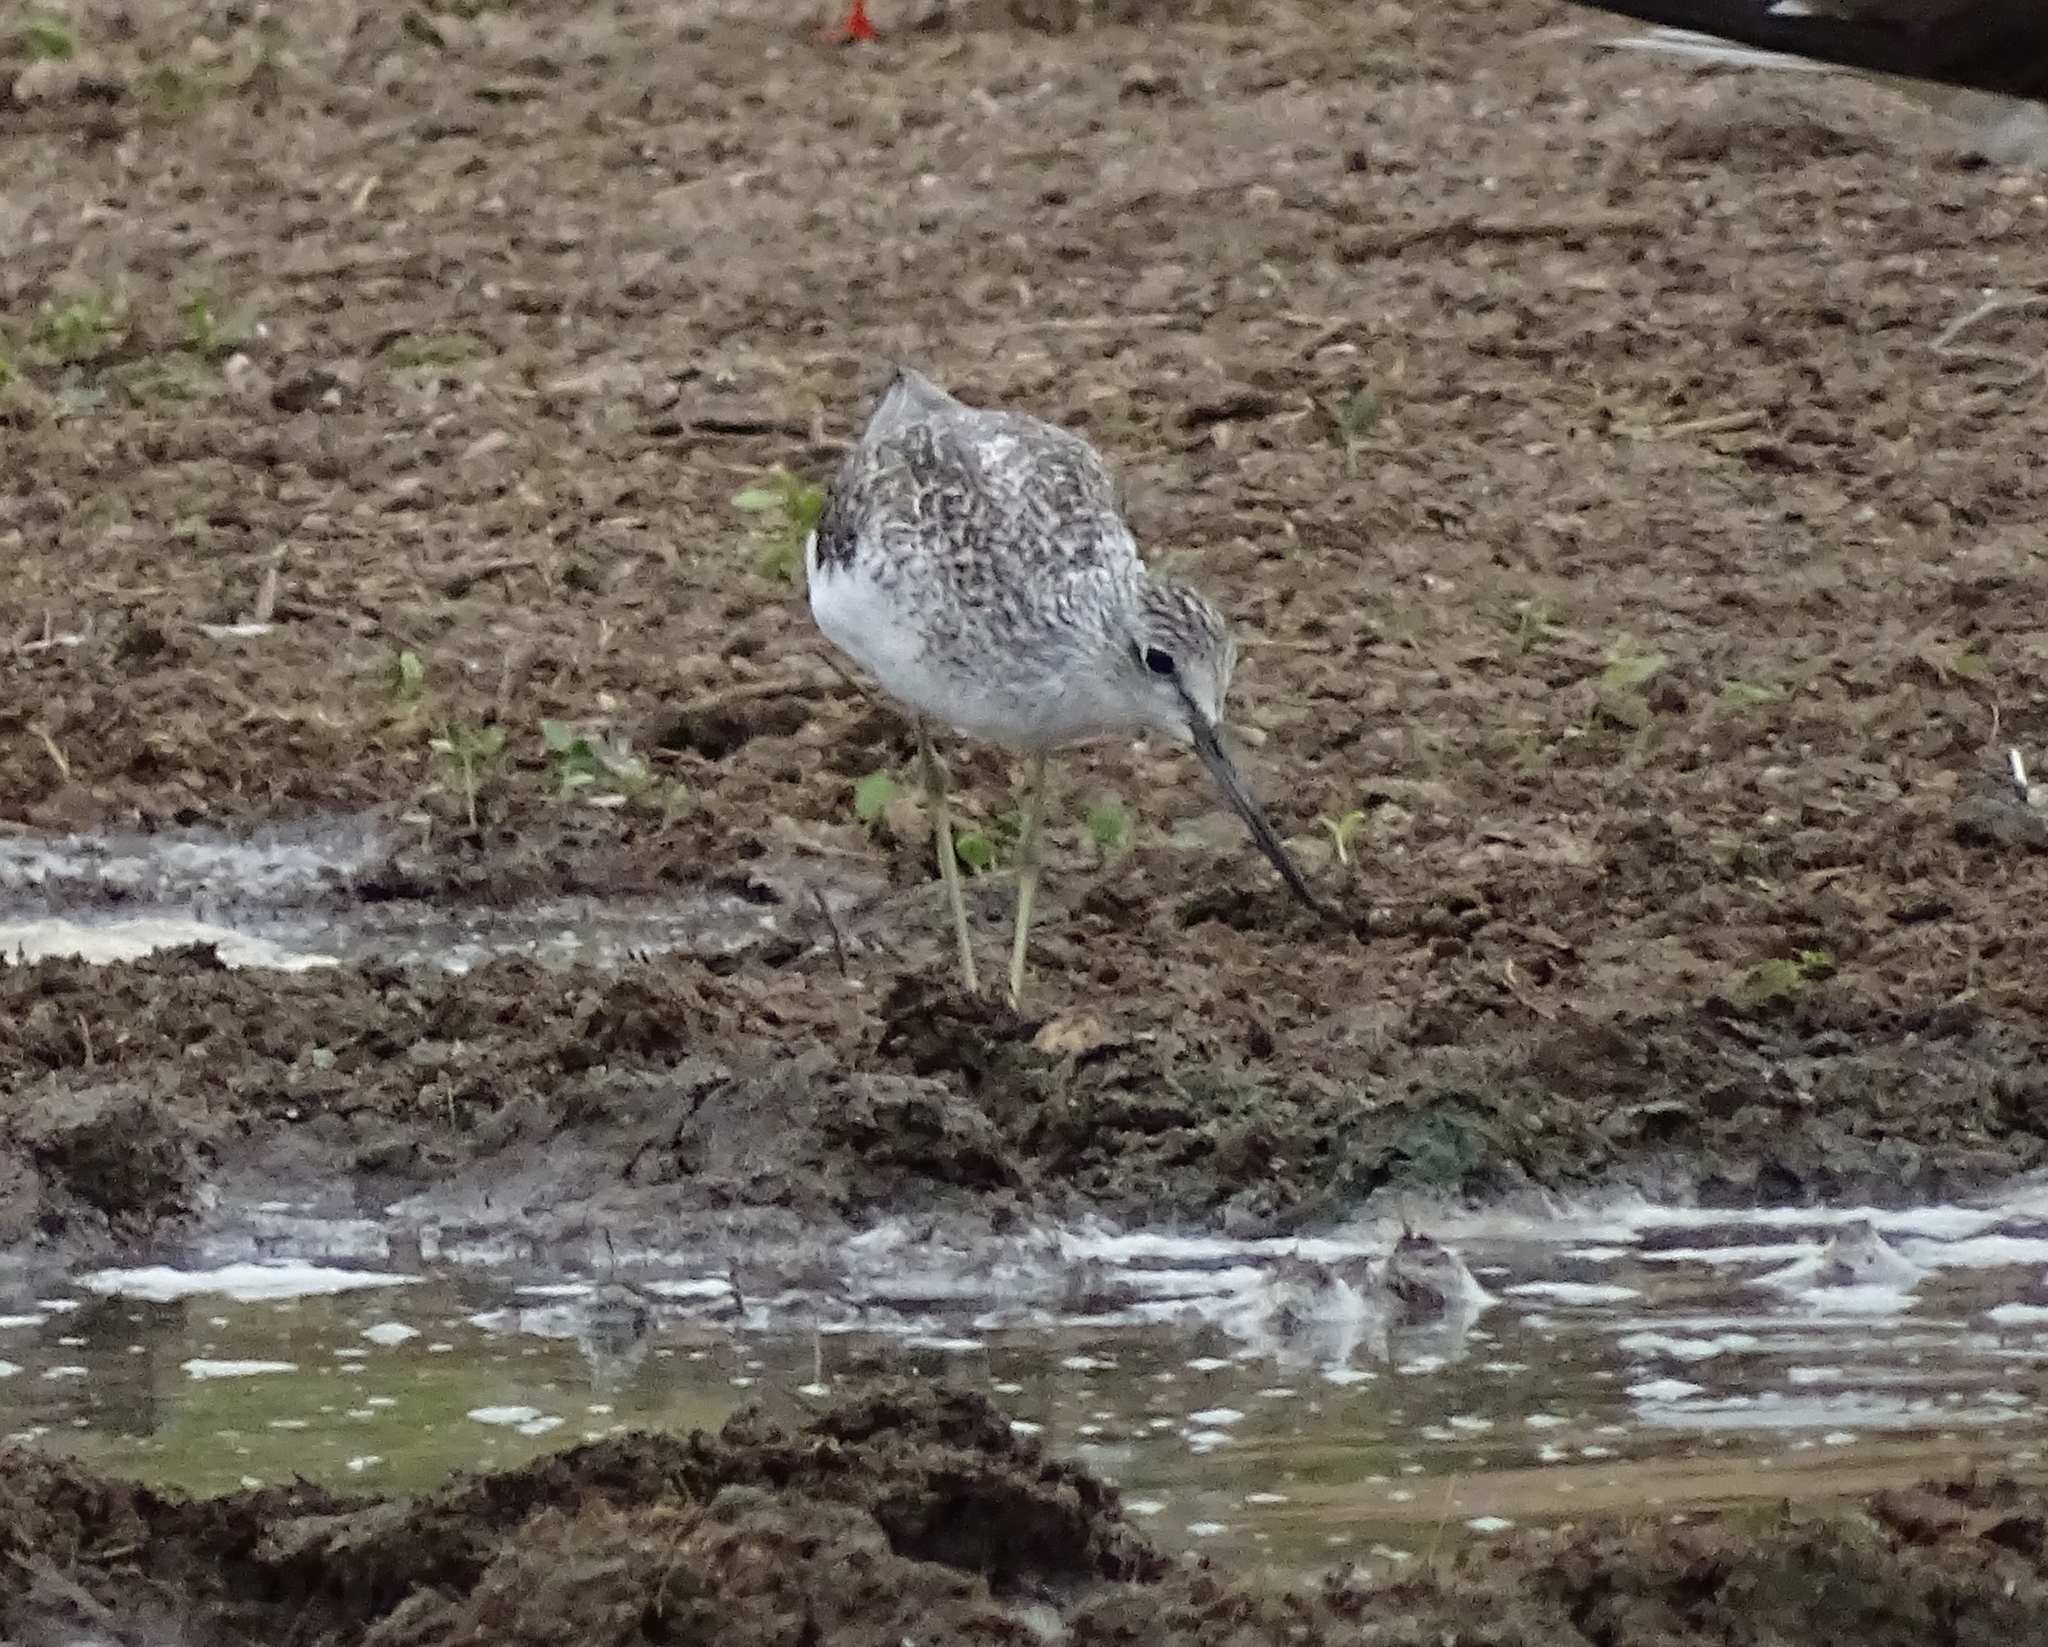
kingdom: Animalia
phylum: Chordata
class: Aves
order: Charadriiformes
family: Scolopacidae
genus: Tringa
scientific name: Tringa nebularia
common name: Common greenshank
